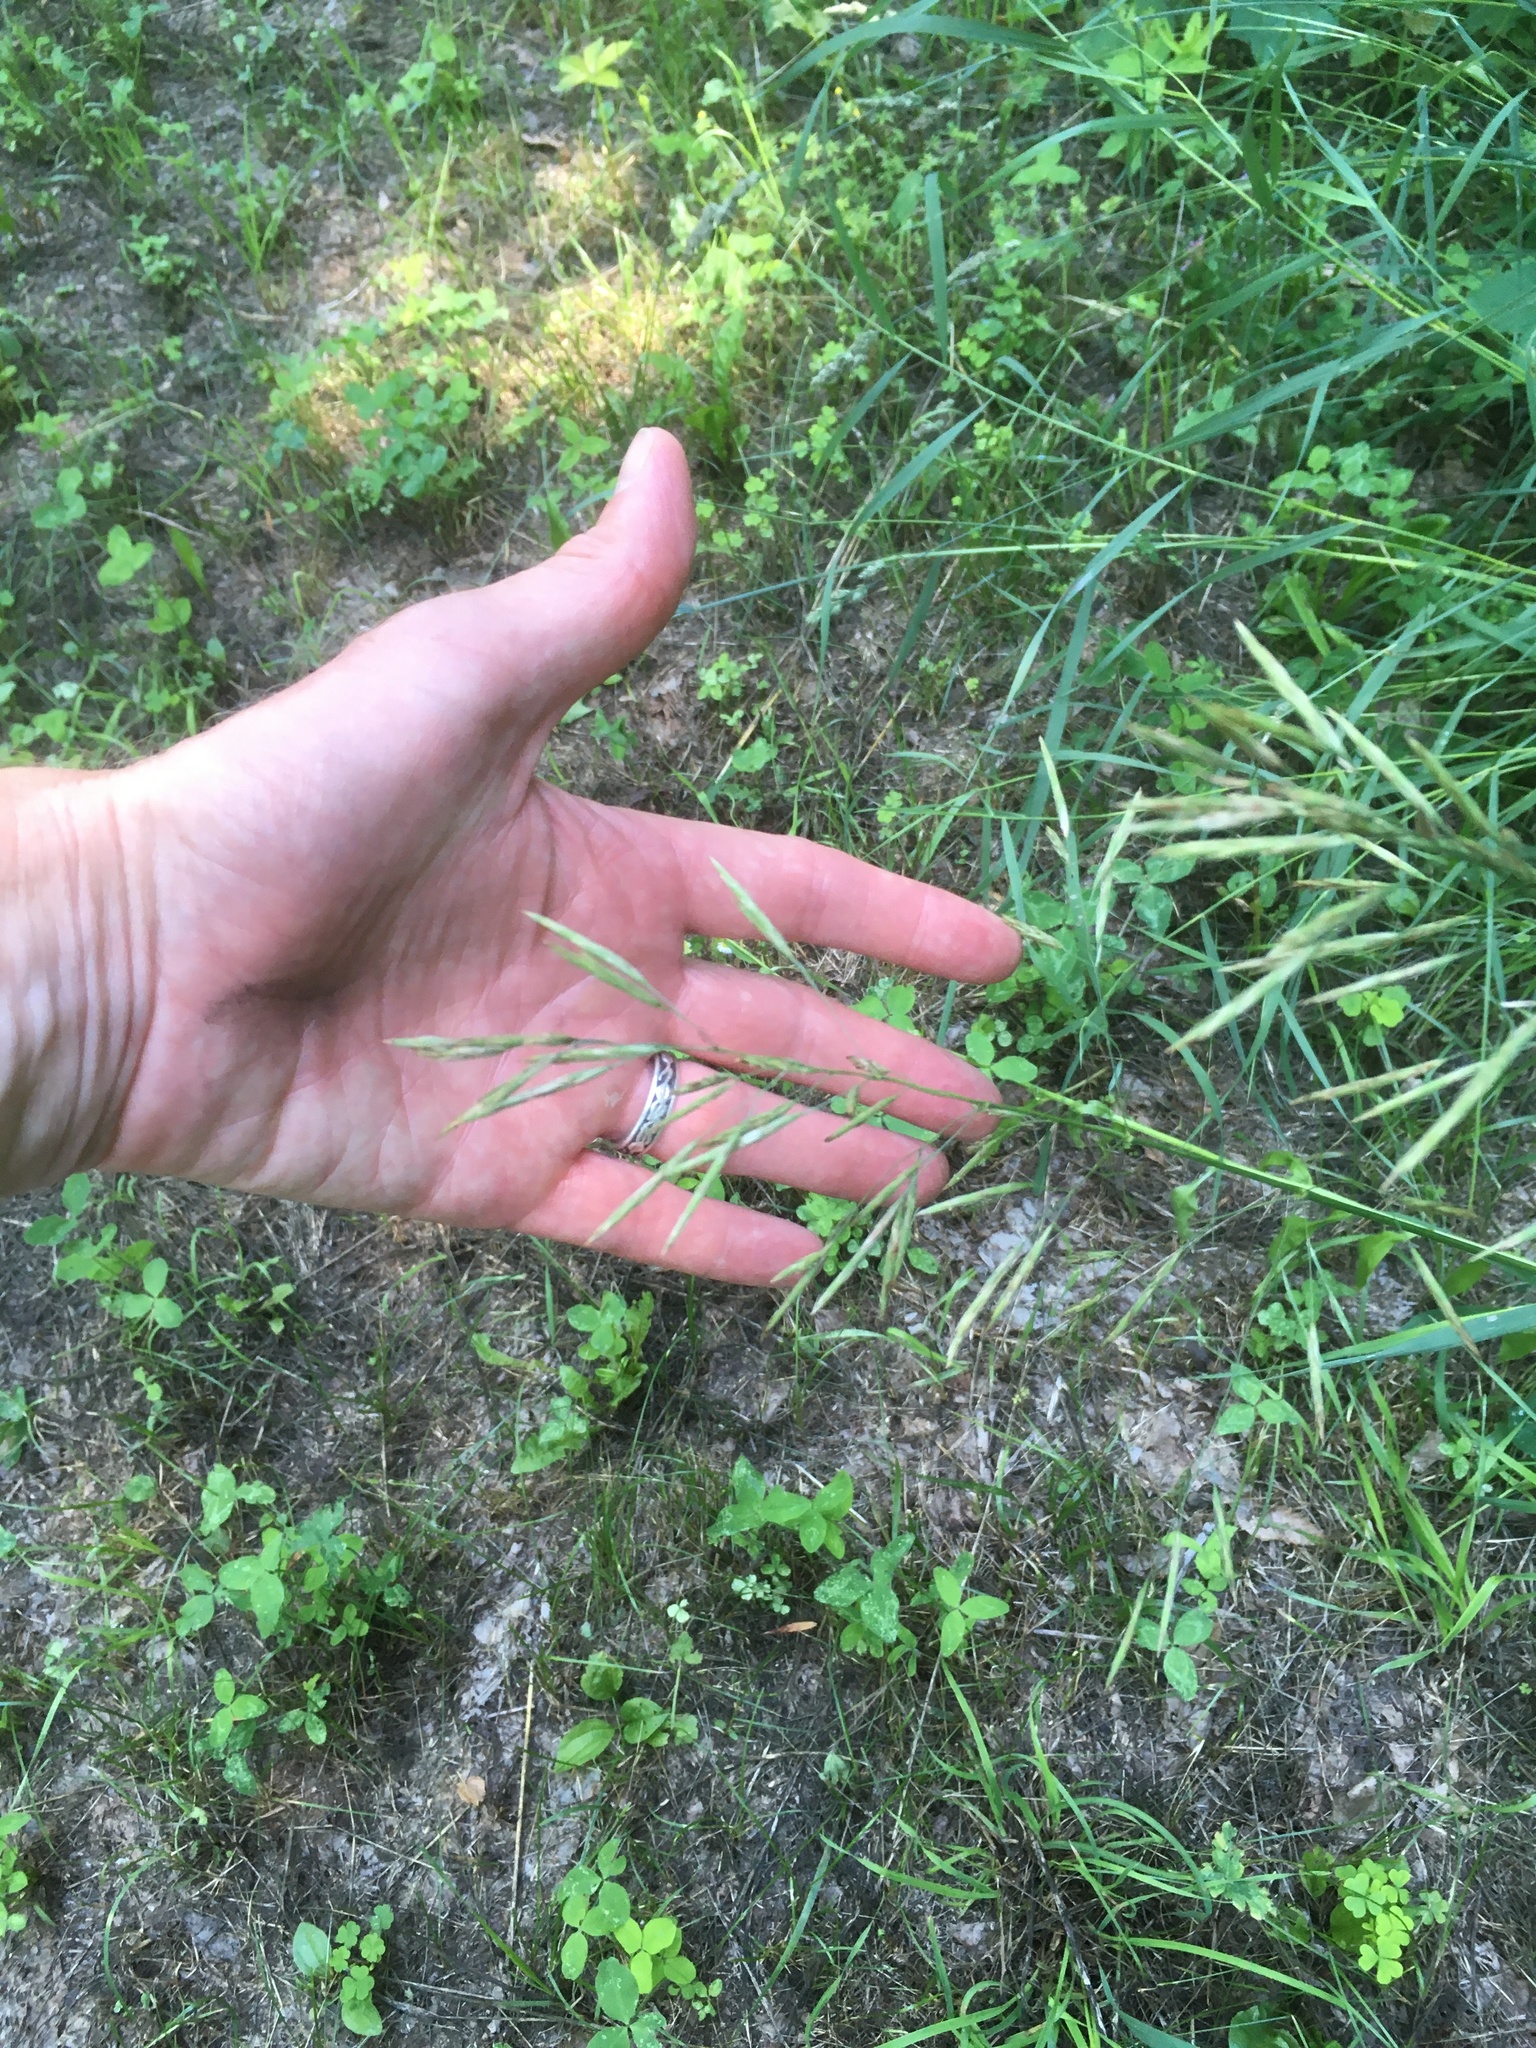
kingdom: Plantae
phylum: Tracheophyta
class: Liliopsida
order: Poales
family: Poaceae
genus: Bromus
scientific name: Bromus inermis
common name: Smooth brome
